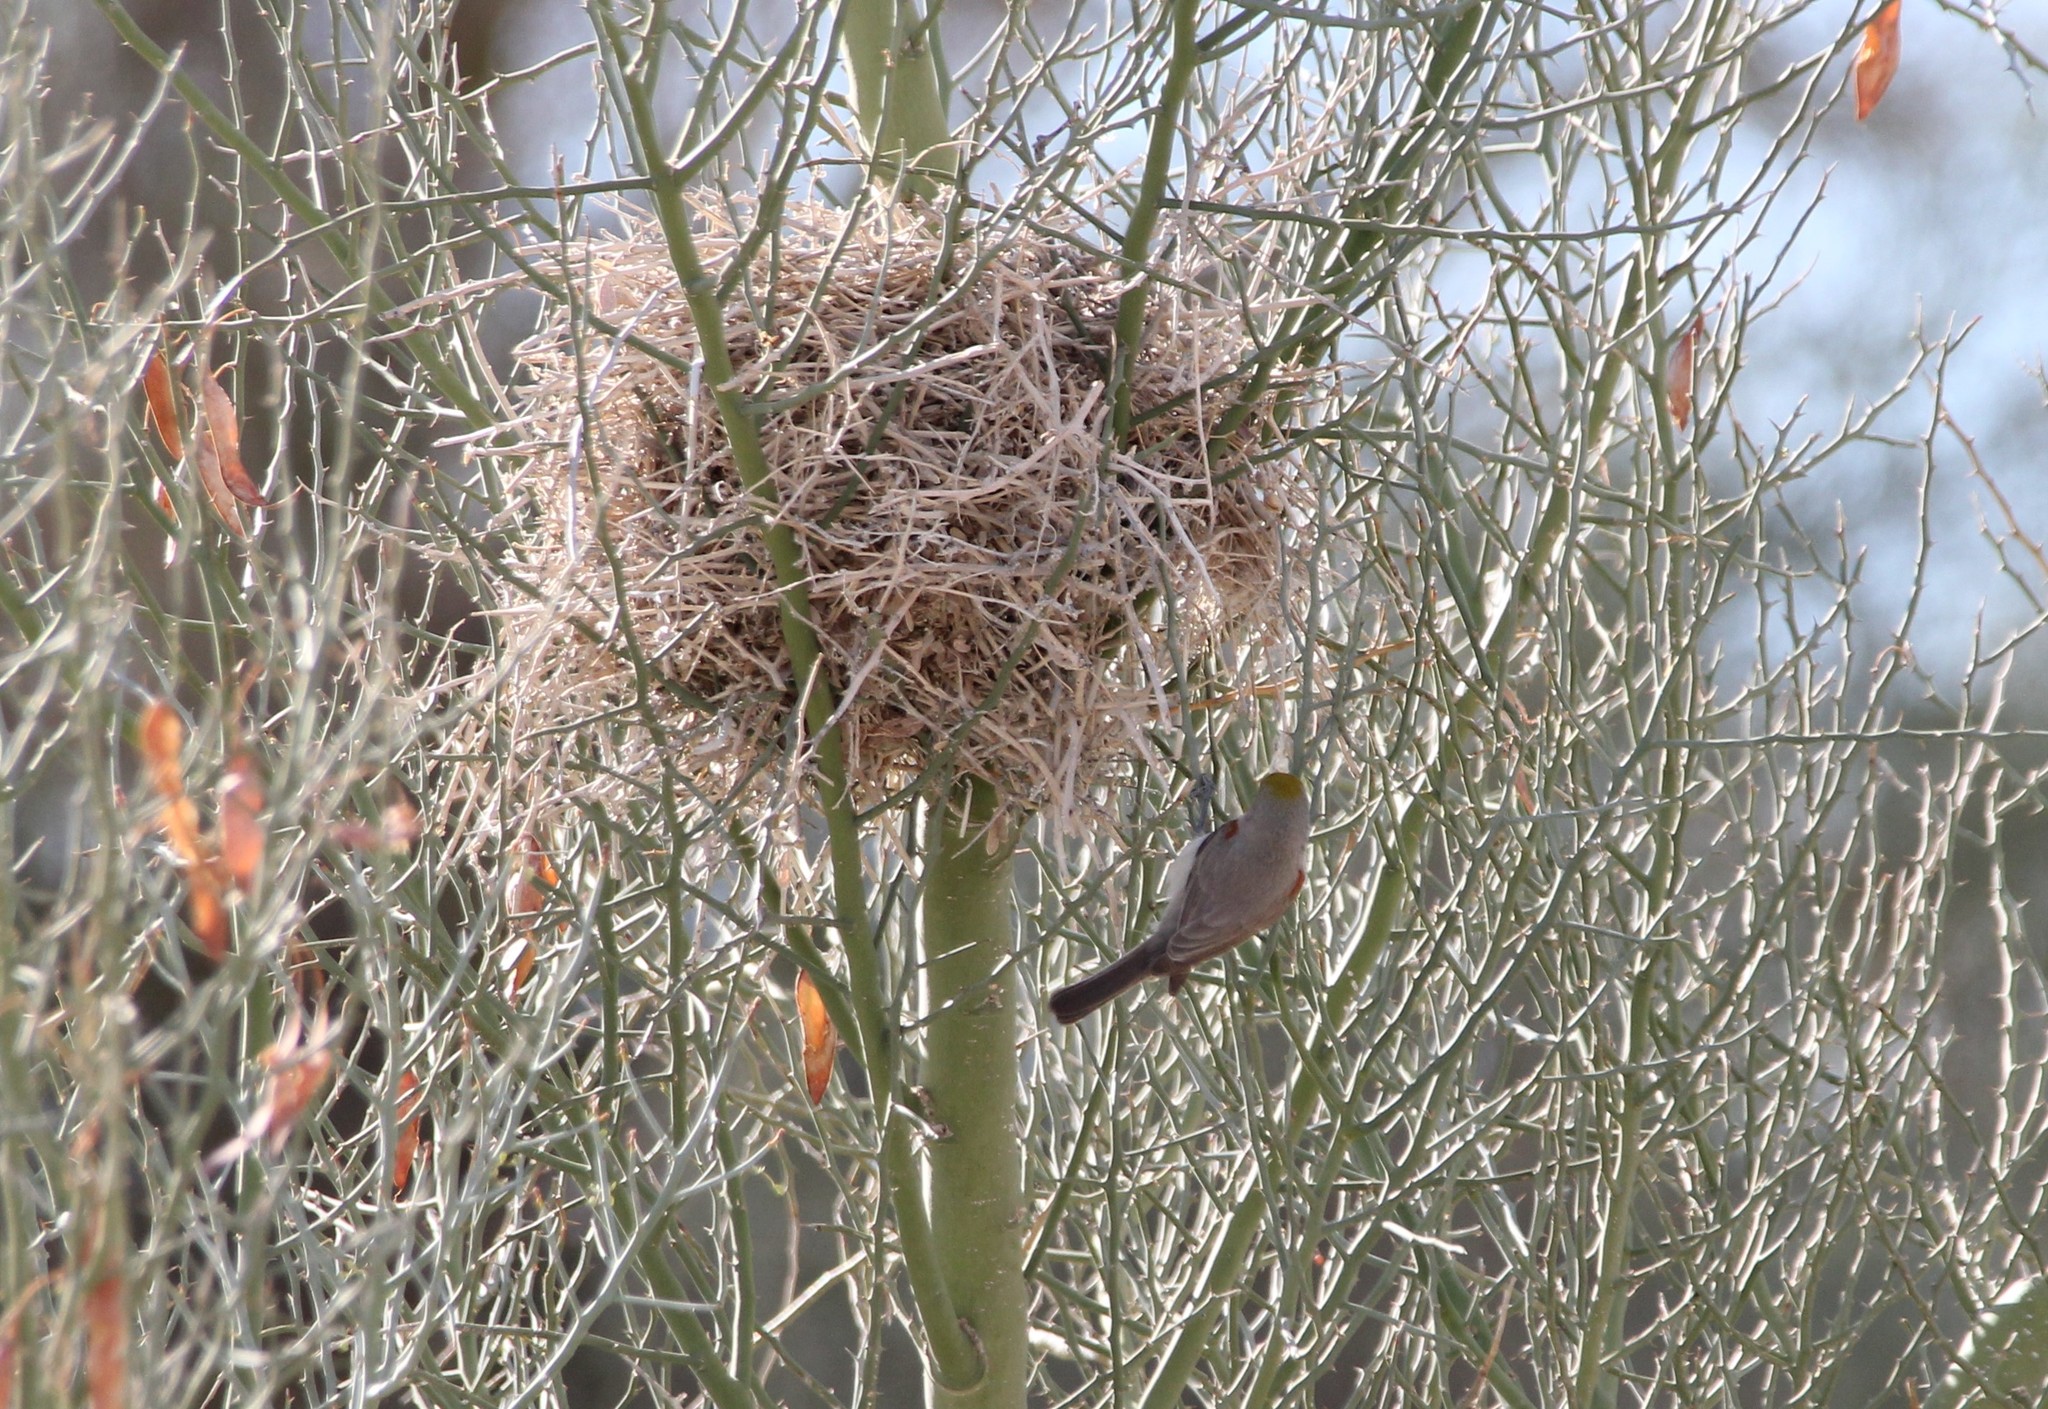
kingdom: Animalia
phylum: Chordata
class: Aves
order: Passeriformes
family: Remizidae
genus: Auriparus
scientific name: Auriparus flaviceps
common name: Verdin
